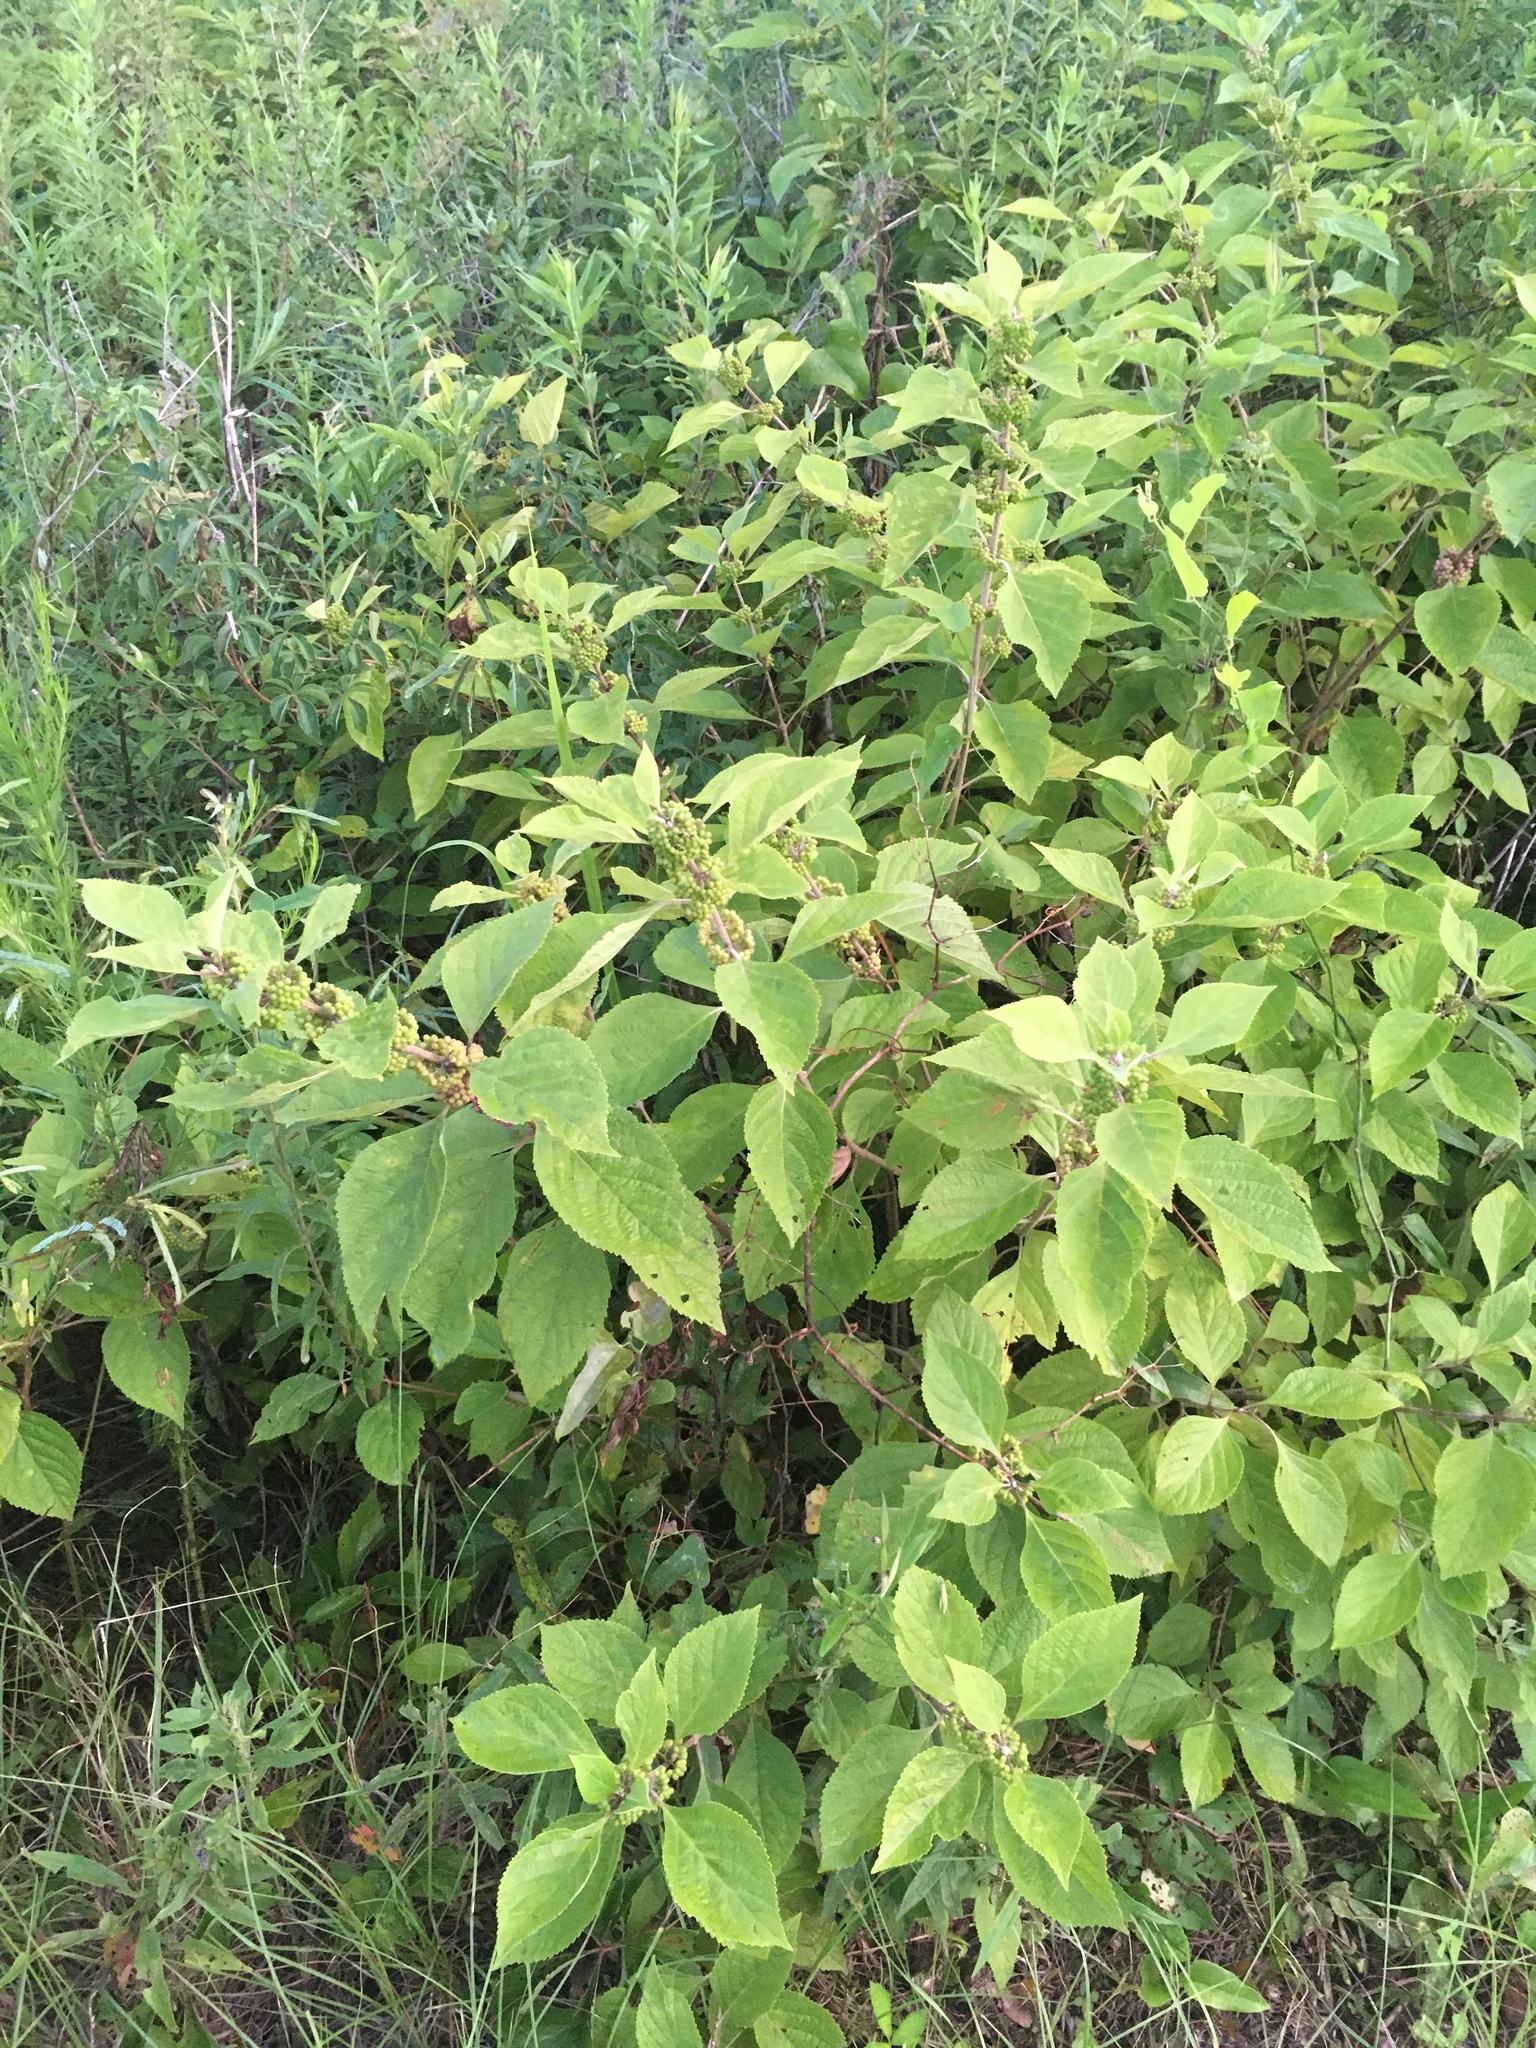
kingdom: Plantae
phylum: Tracheophyta
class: Magnoliopsida
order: Lamiales
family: Lamiaceae
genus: Callicarpa
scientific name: Callicarpa americana
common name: American beautyberry
